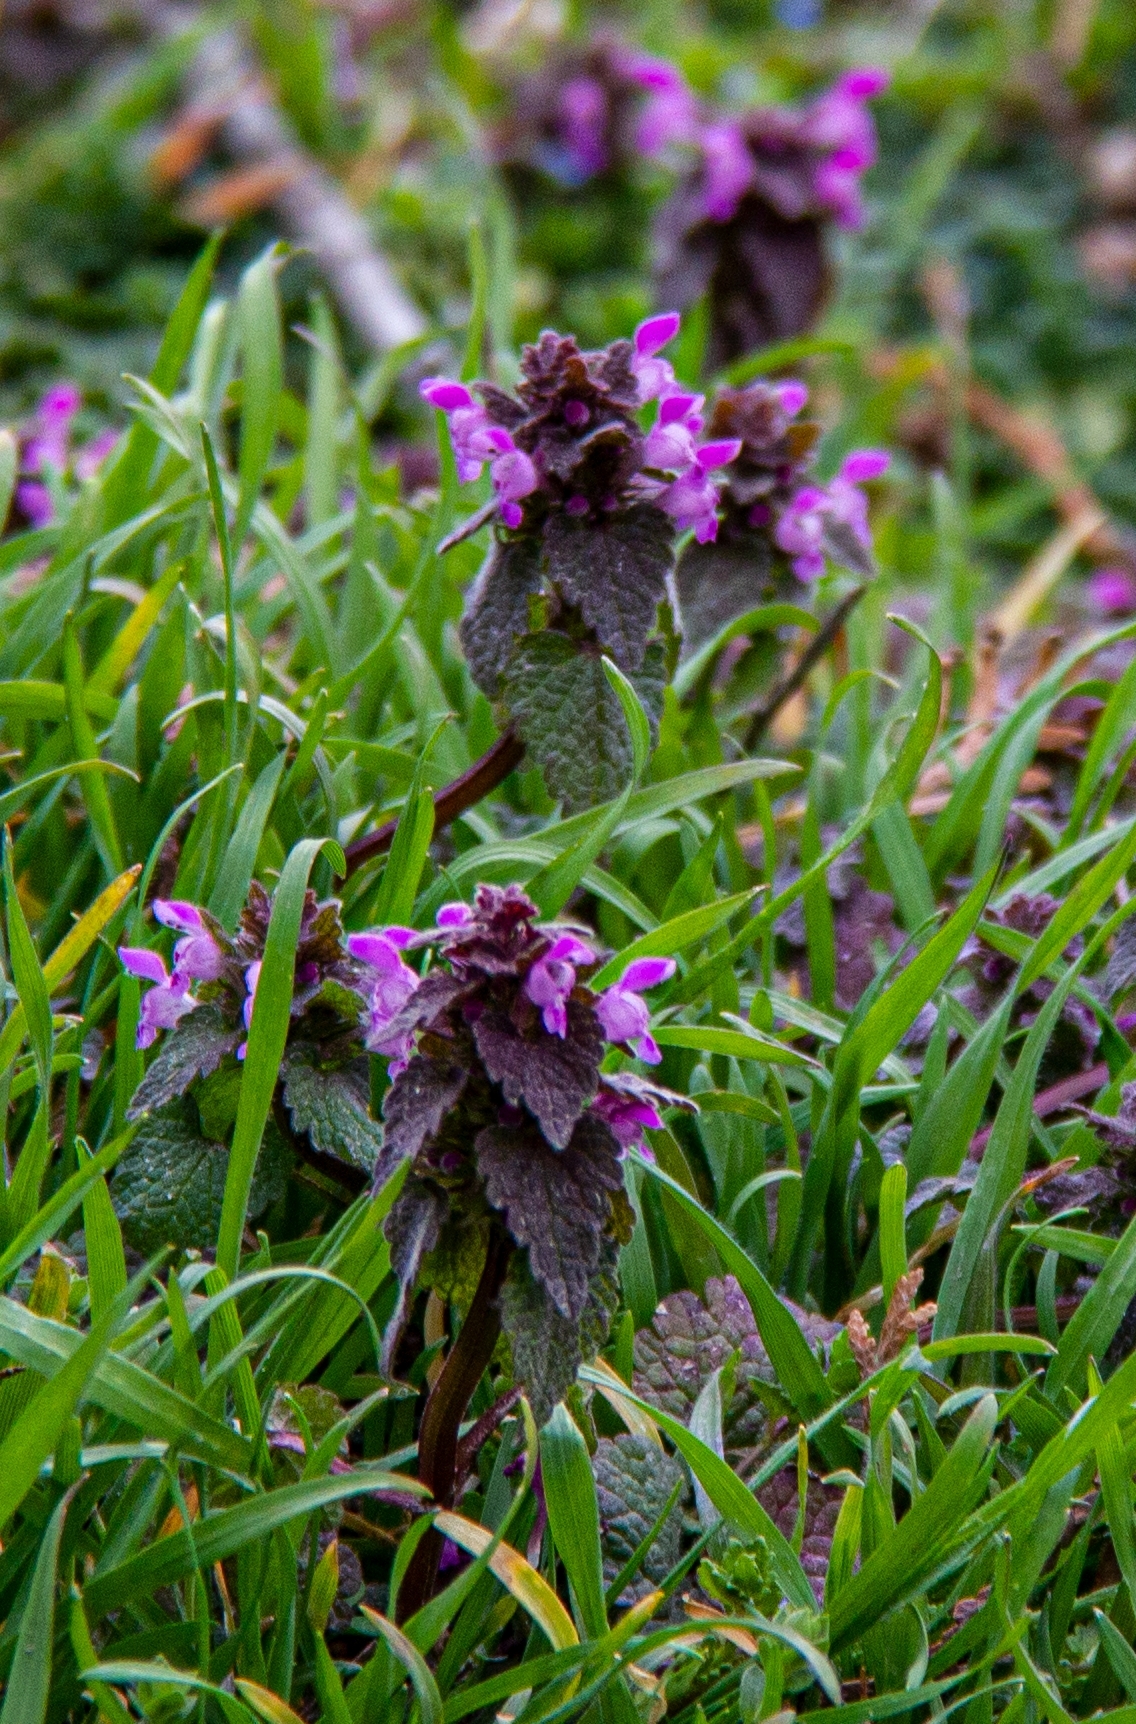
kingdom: Plantae
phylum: Tracheophyta
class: Magnoliopsida
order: Lamiales
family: Lamiaceae
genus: Lamium
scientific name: Lamium purpureum
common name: Red dead-nettle
